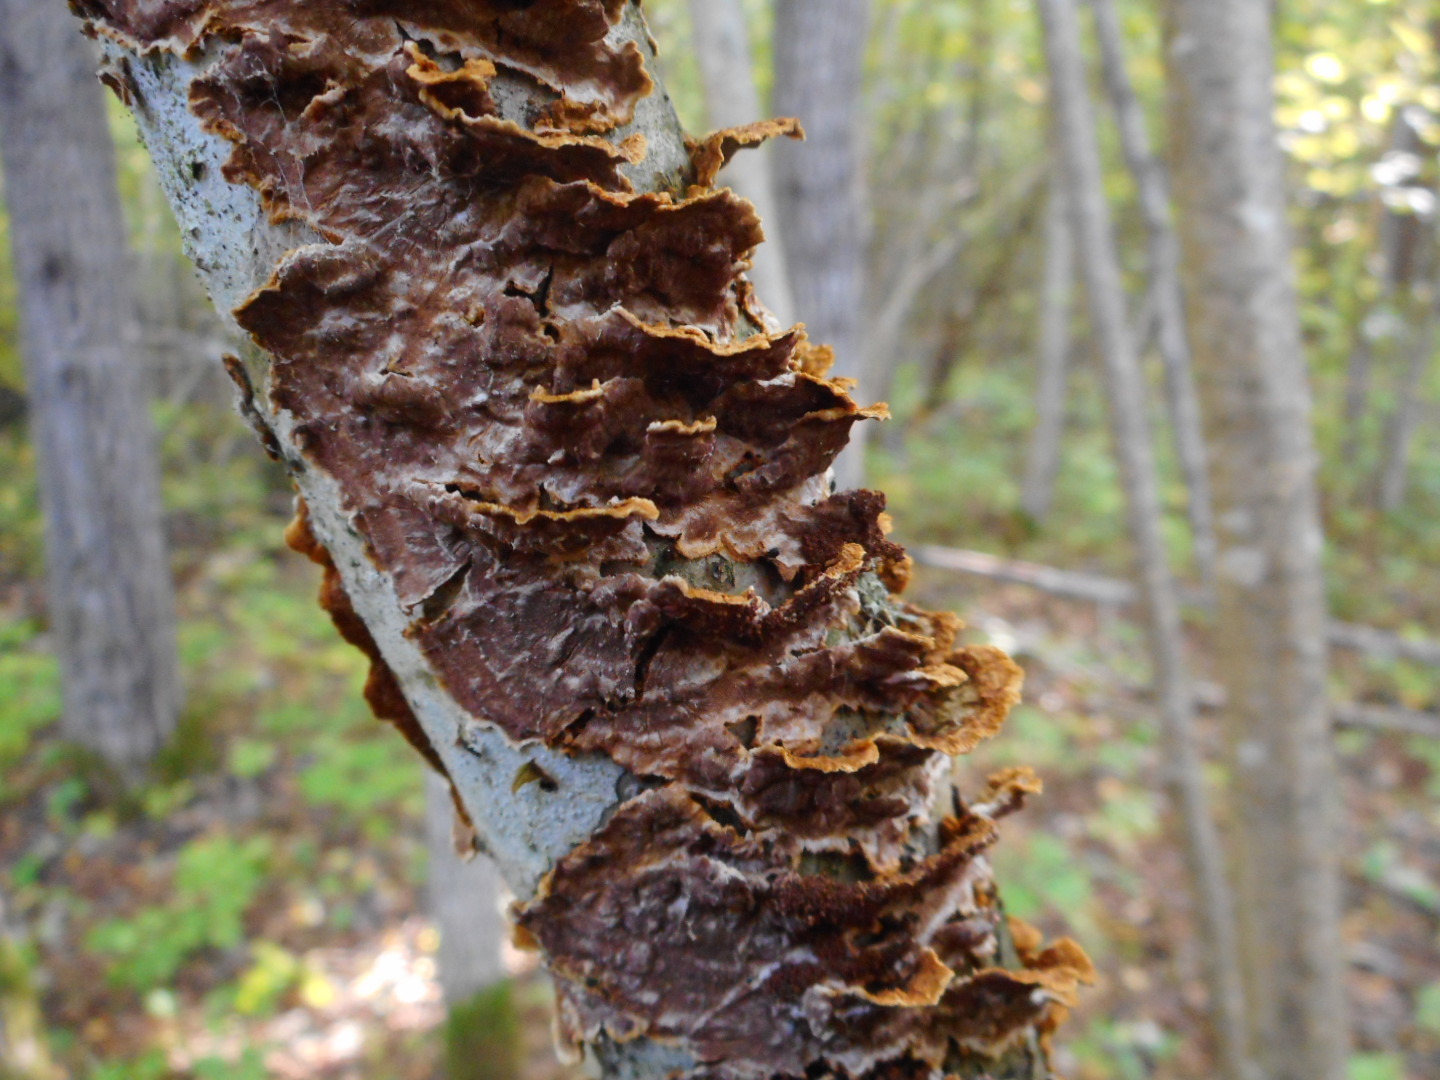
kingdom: Fungi
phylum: Basidiomycota
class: Agaricomycetes
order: Hymenochaetales
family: Hymenochaetaceae
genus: Hydnoporia
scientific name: Hydnoporia tabacina
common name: Willow glue
